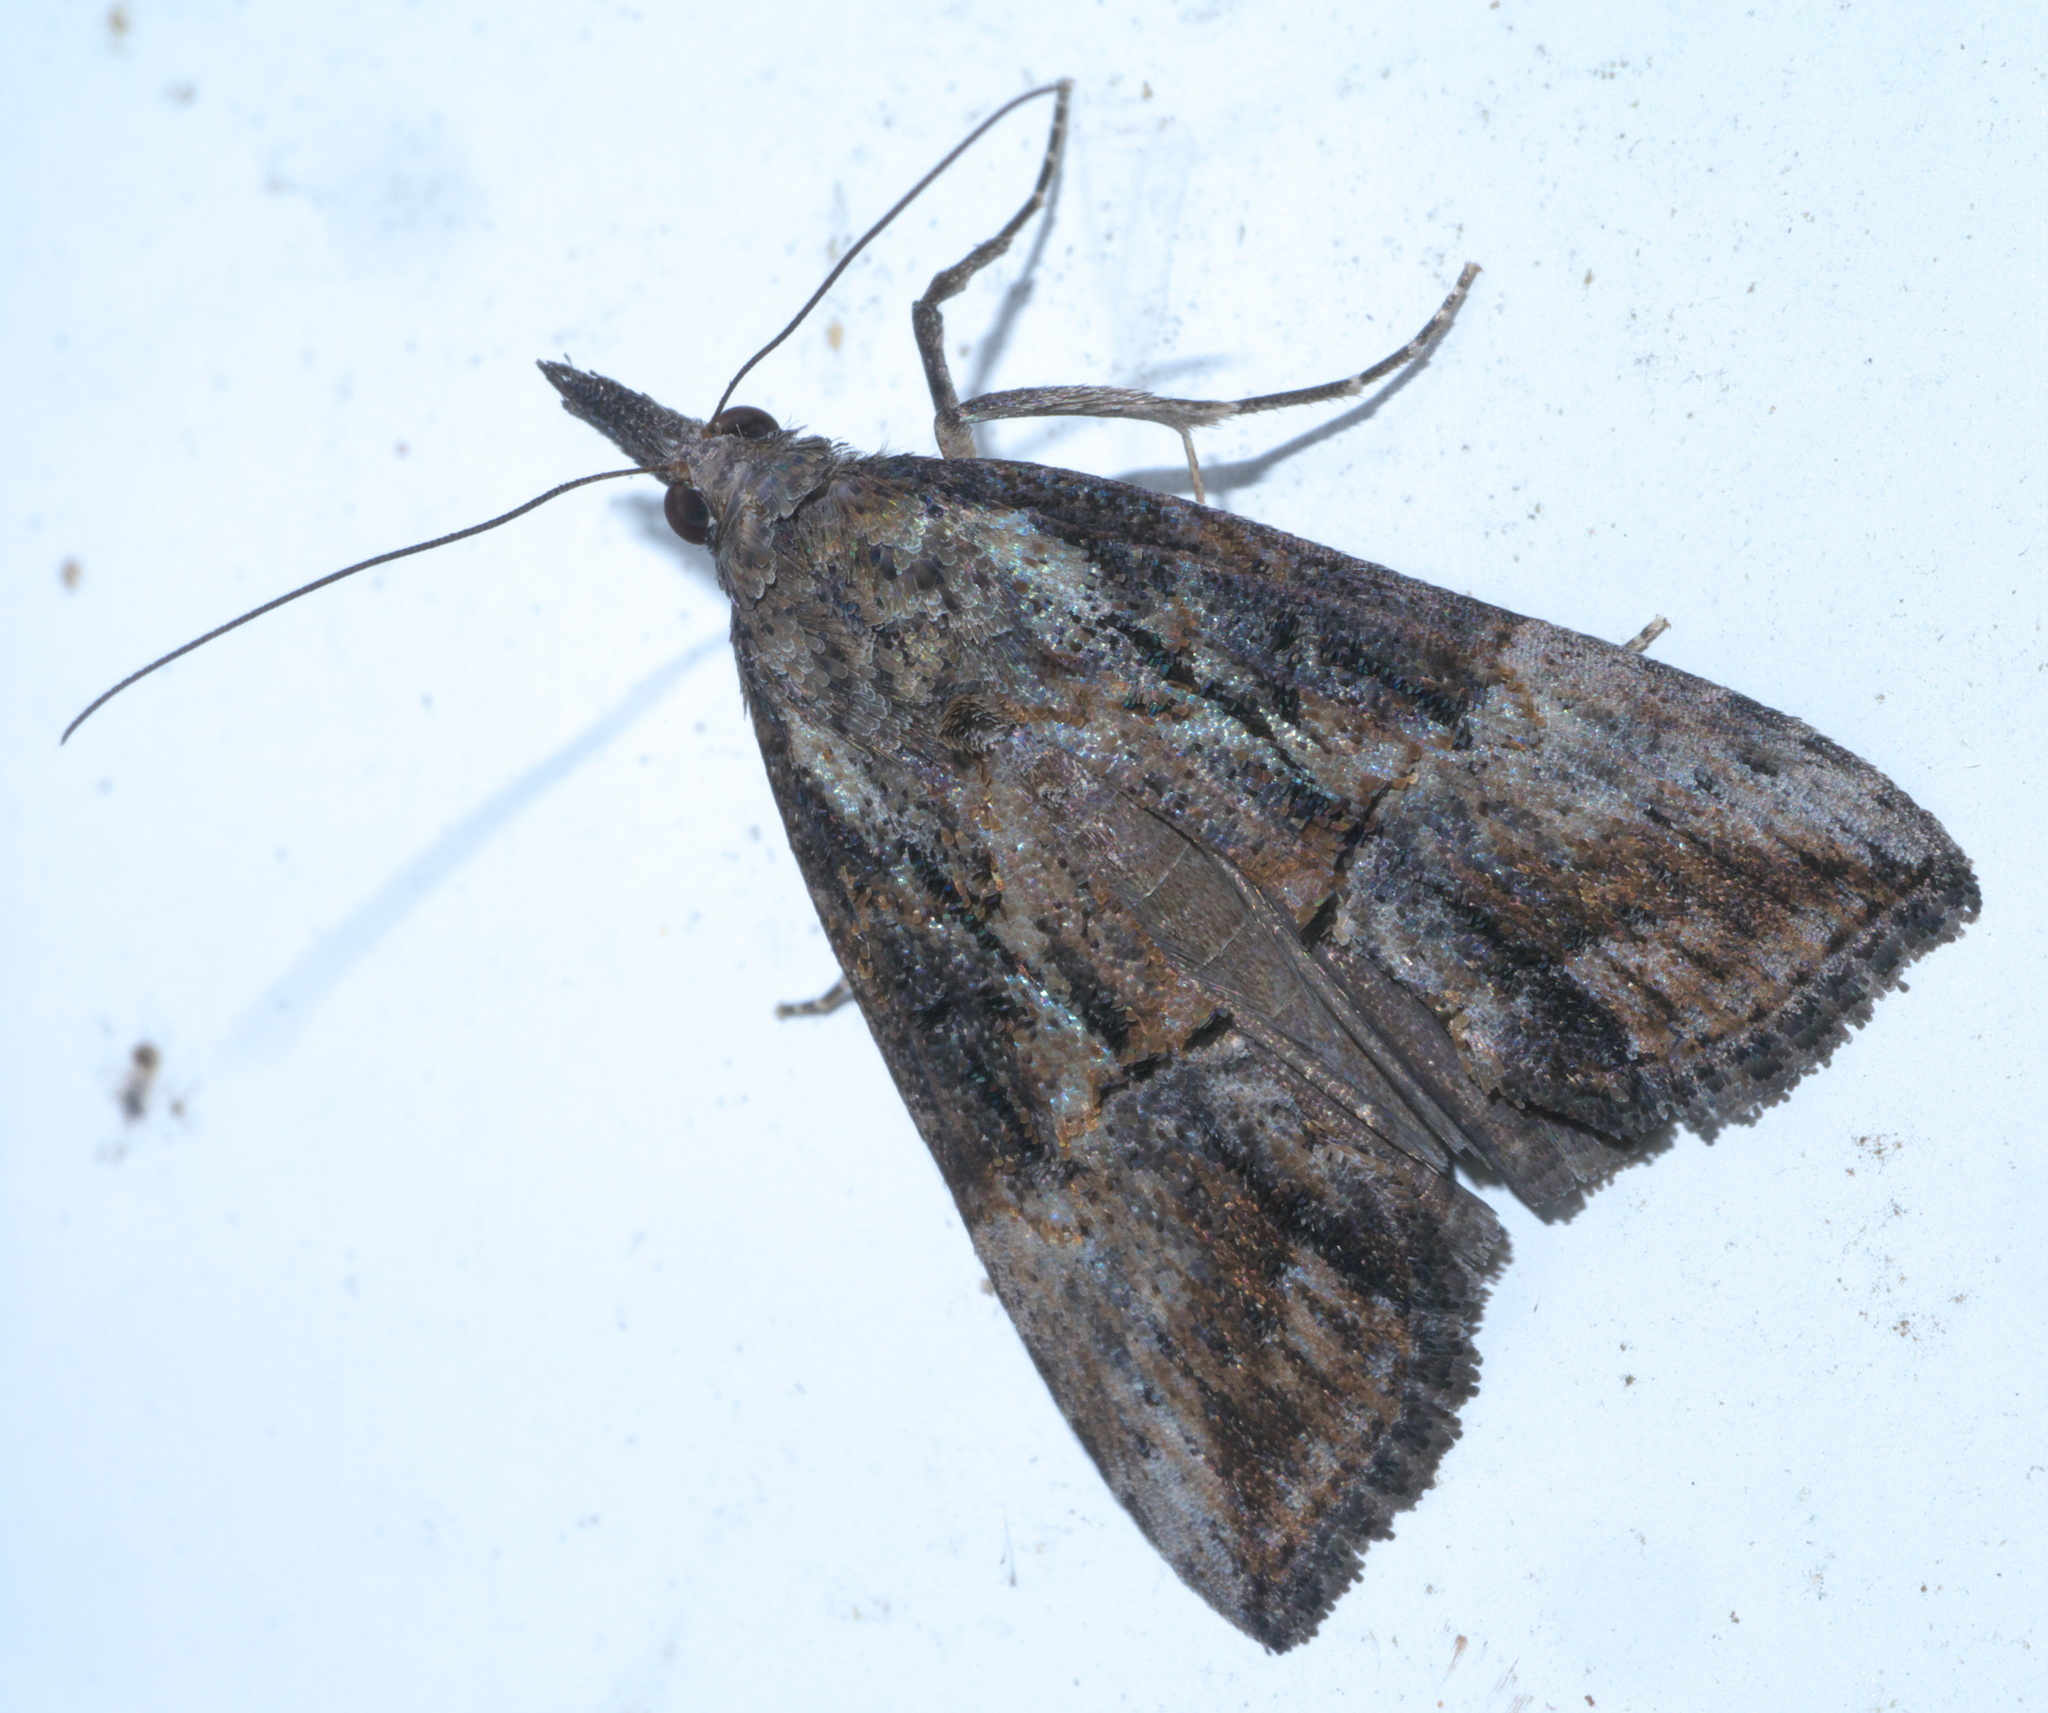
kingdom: Animalia
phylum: Arthropoda
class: Insecta
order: Lepidoptera
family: Erebidae
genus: Hypena
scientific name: Hypena scabra
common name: Green cloverworm
